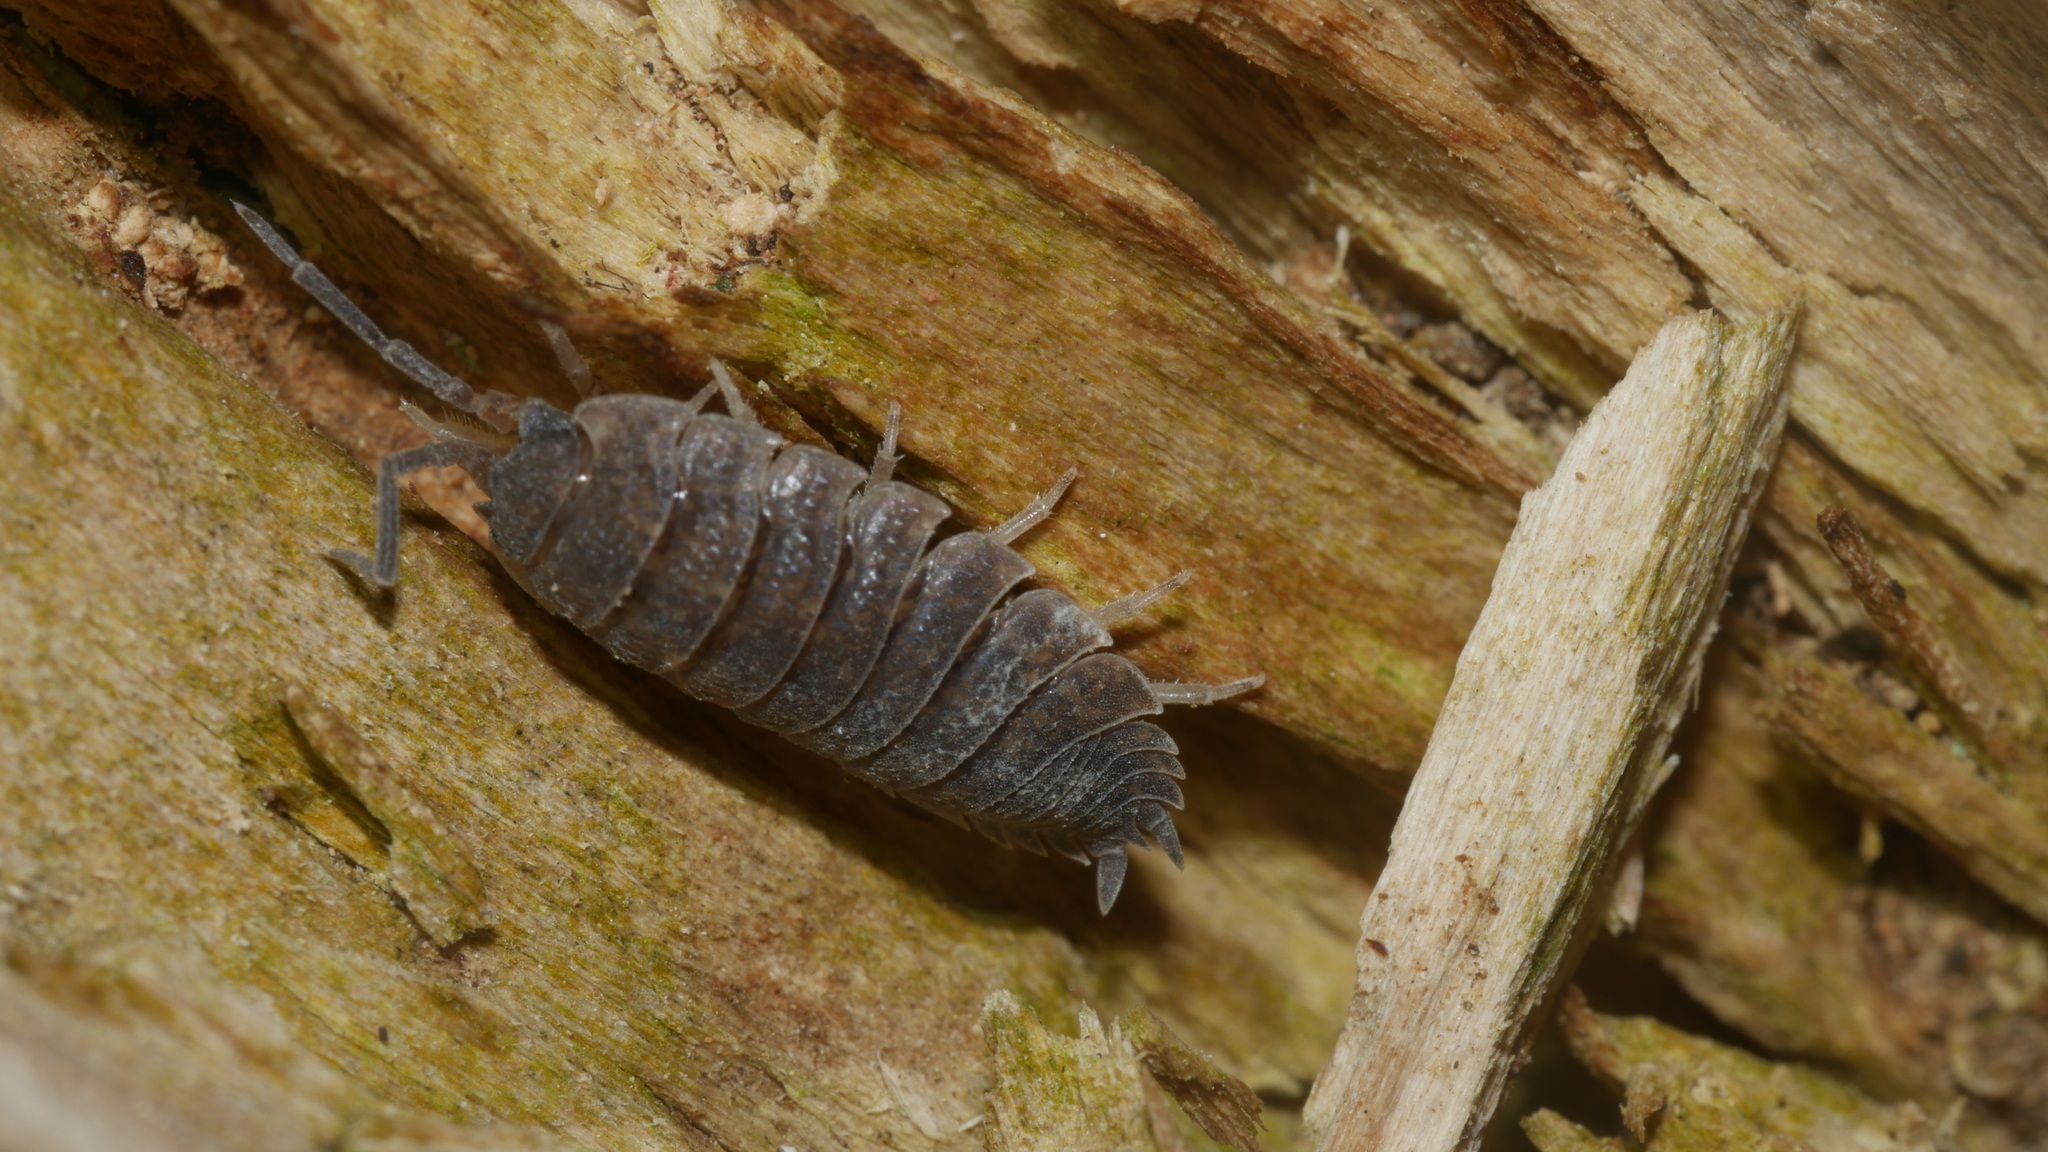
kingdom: Animalia
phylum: Arthropoda
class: Malacostraca
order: Isopoda
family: Porcellionidae
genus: Porcellio
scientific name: Porcellio scaber
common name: Common rough woodlouse
